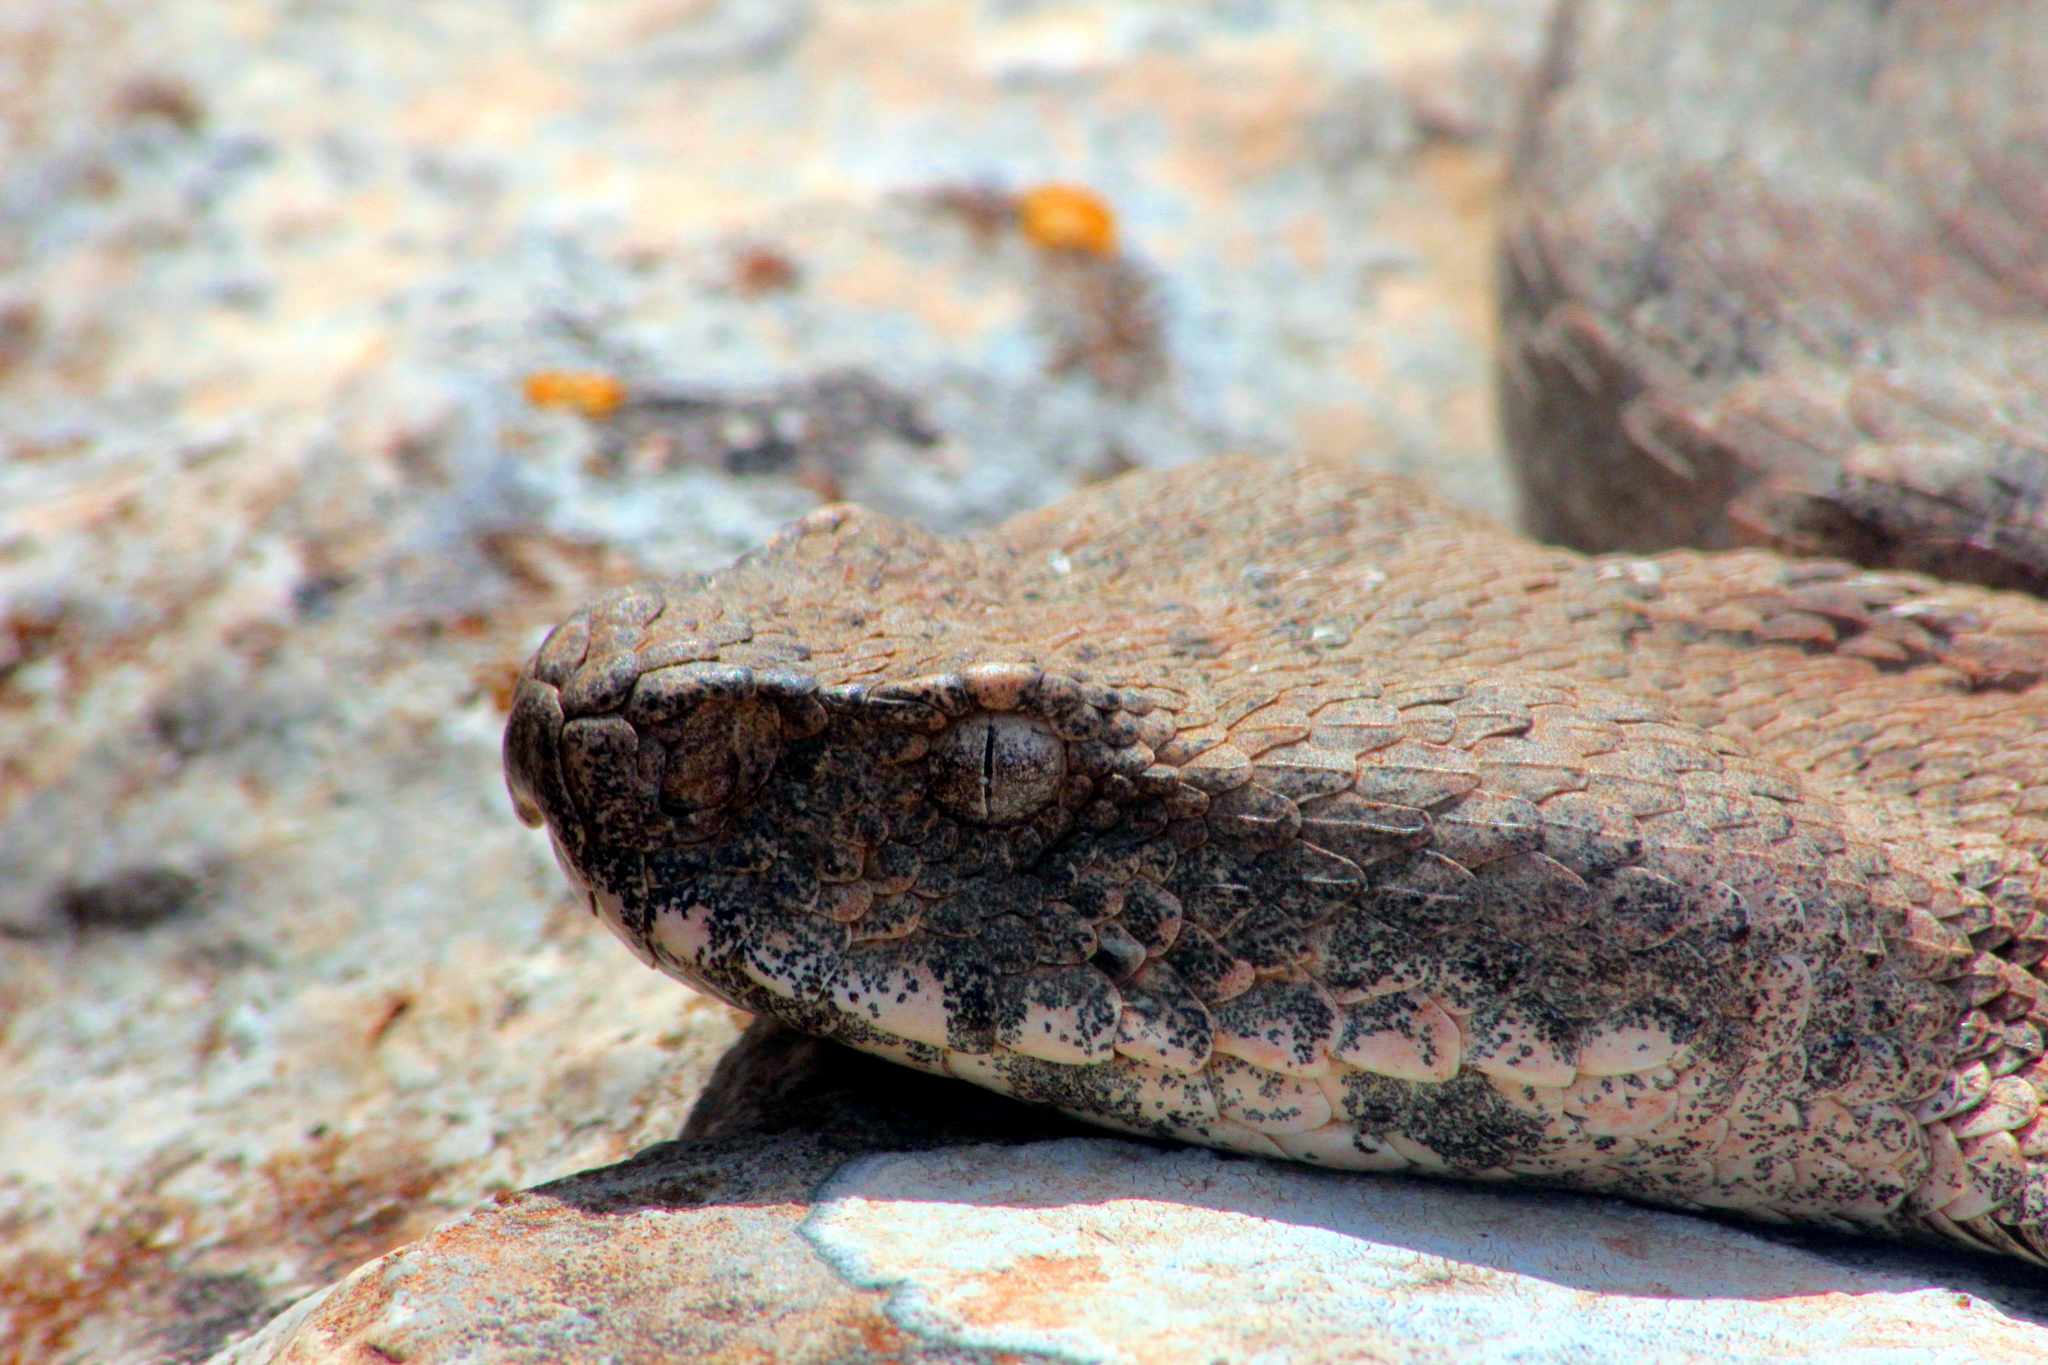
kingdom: Animalia
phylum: Chordata
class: Squamata
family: Viperidae
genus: Macrovipera
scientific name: Macrovipera lebetinus
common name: Levantine viper
